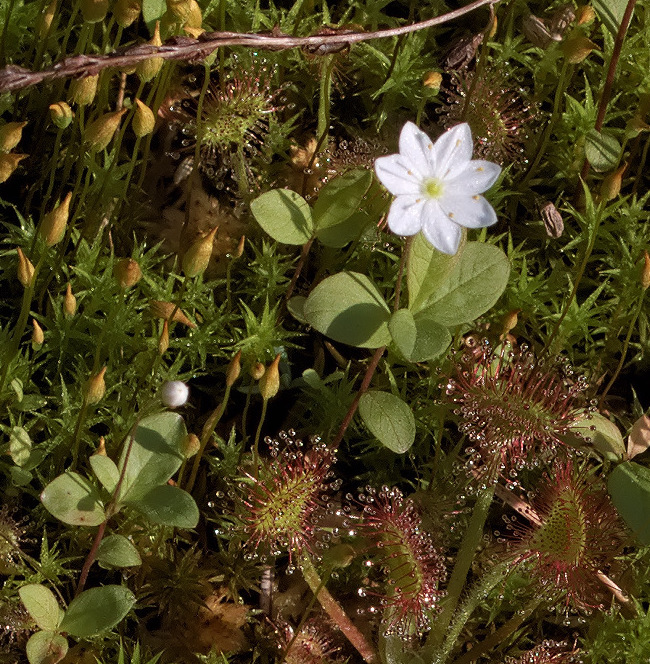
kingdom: Plantae
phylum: Tracheophyta
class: Magnoliopsida
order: Ericales
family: Primulaceae
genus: Lysimachia
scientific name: Lysimachia europaea
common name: Arctic starflower
